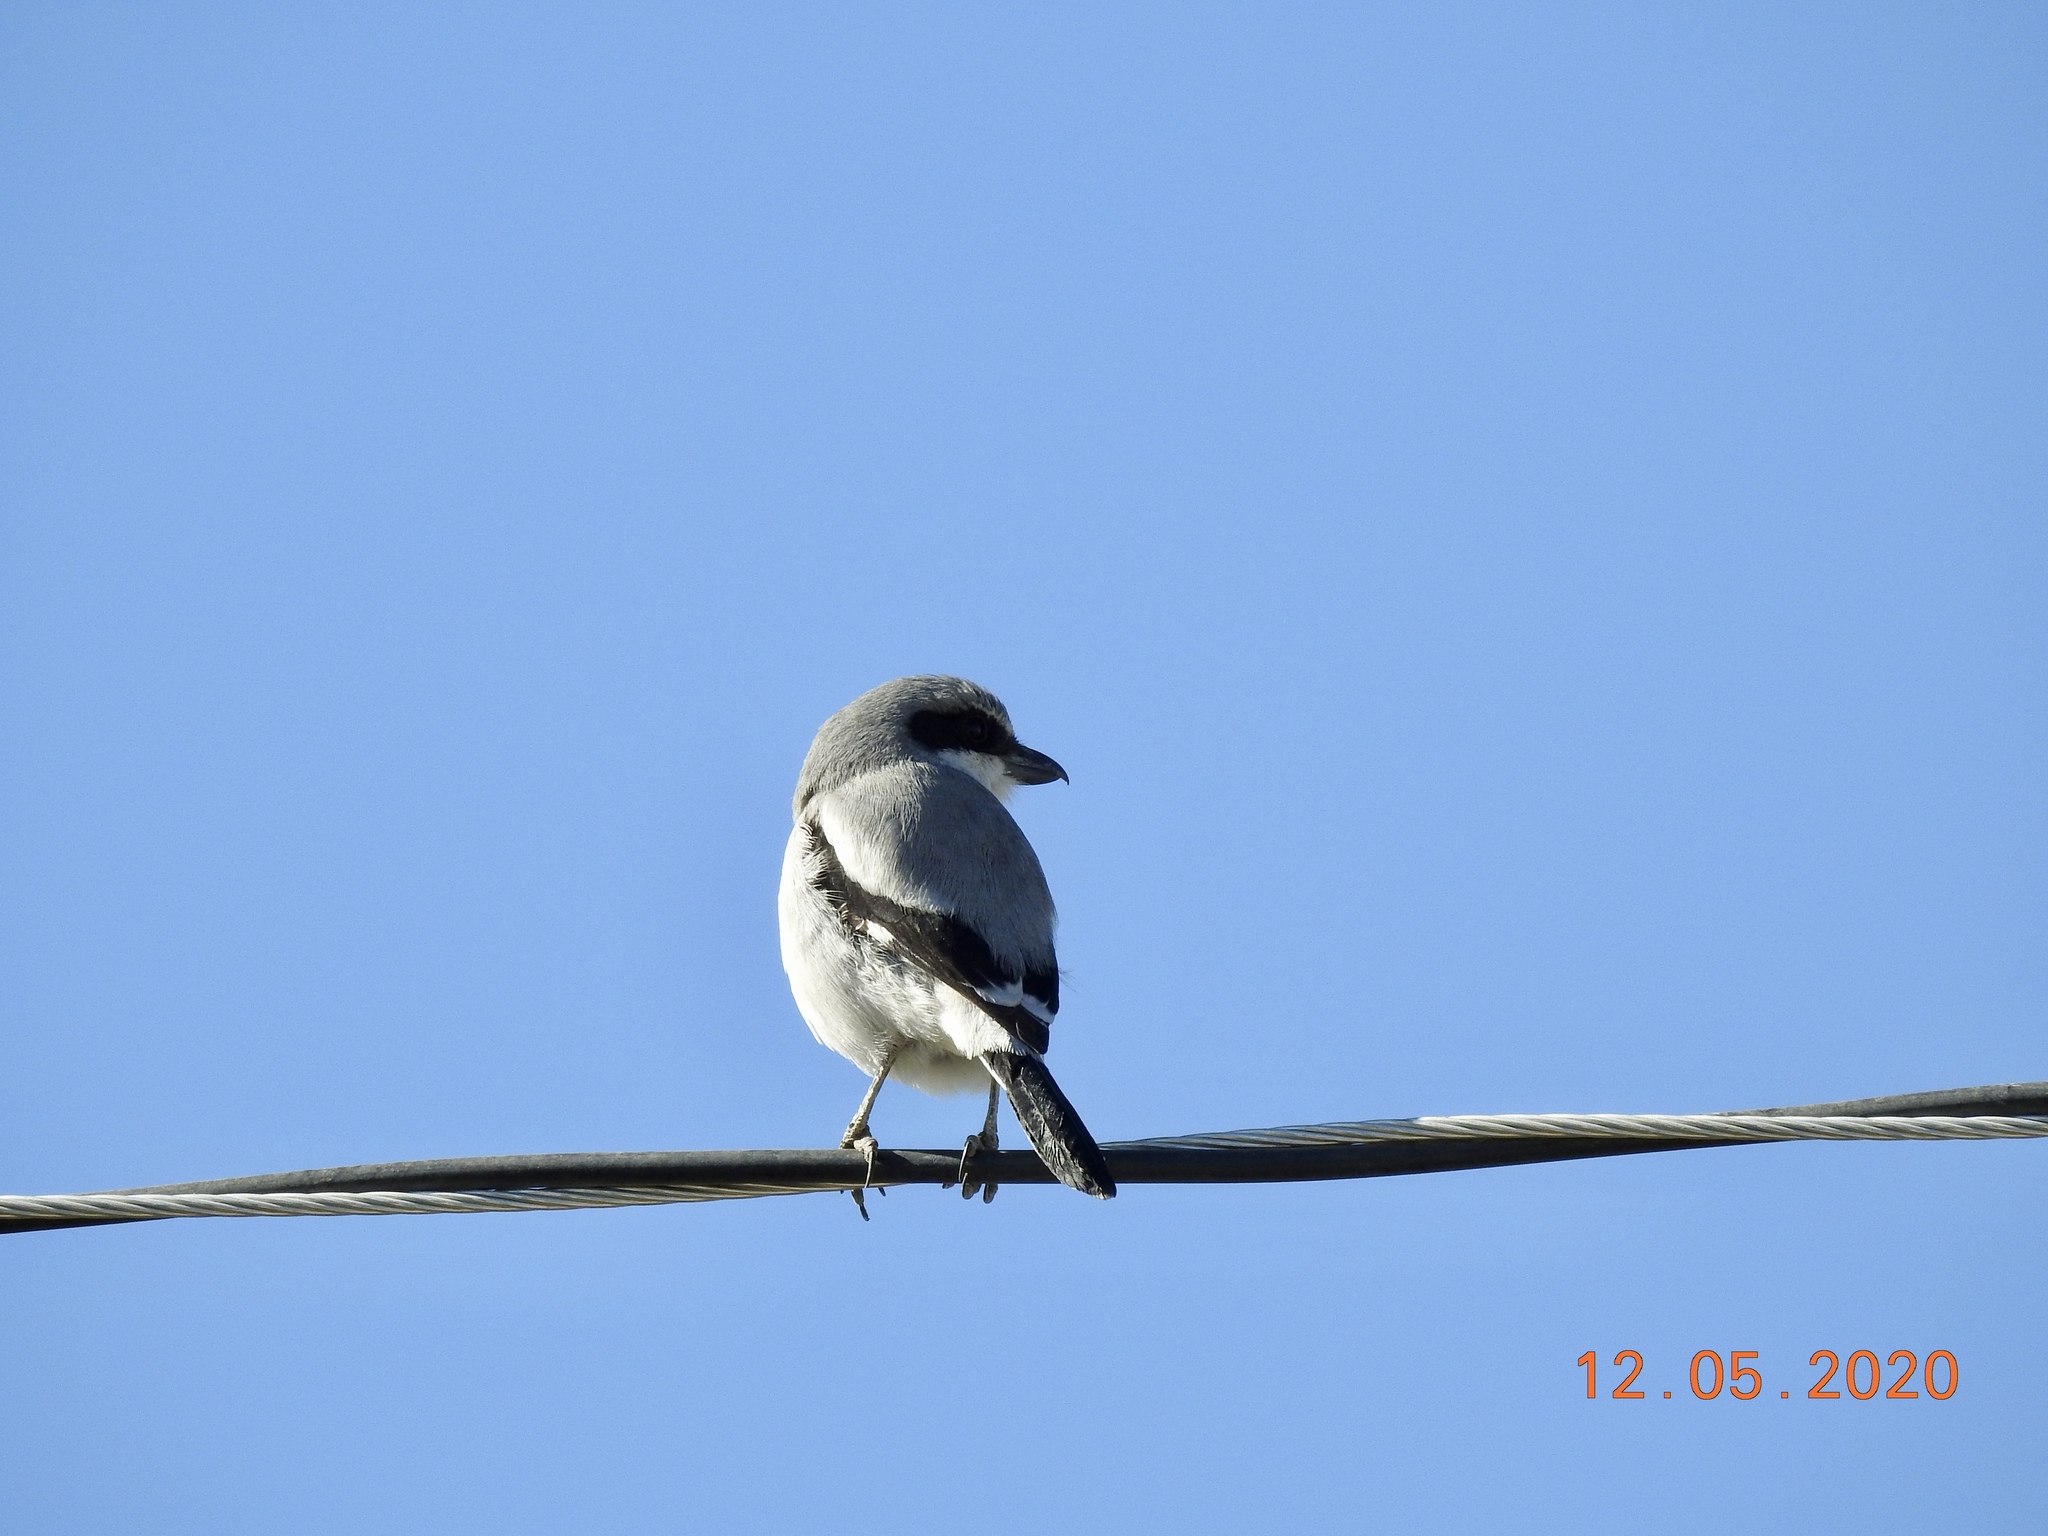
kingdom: Animalia
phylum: Chordata
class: Aves
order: Passeriformes
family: Laniidae
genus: Lanius
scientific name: Lanius ludovicianus
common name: Loggerhead shrike
